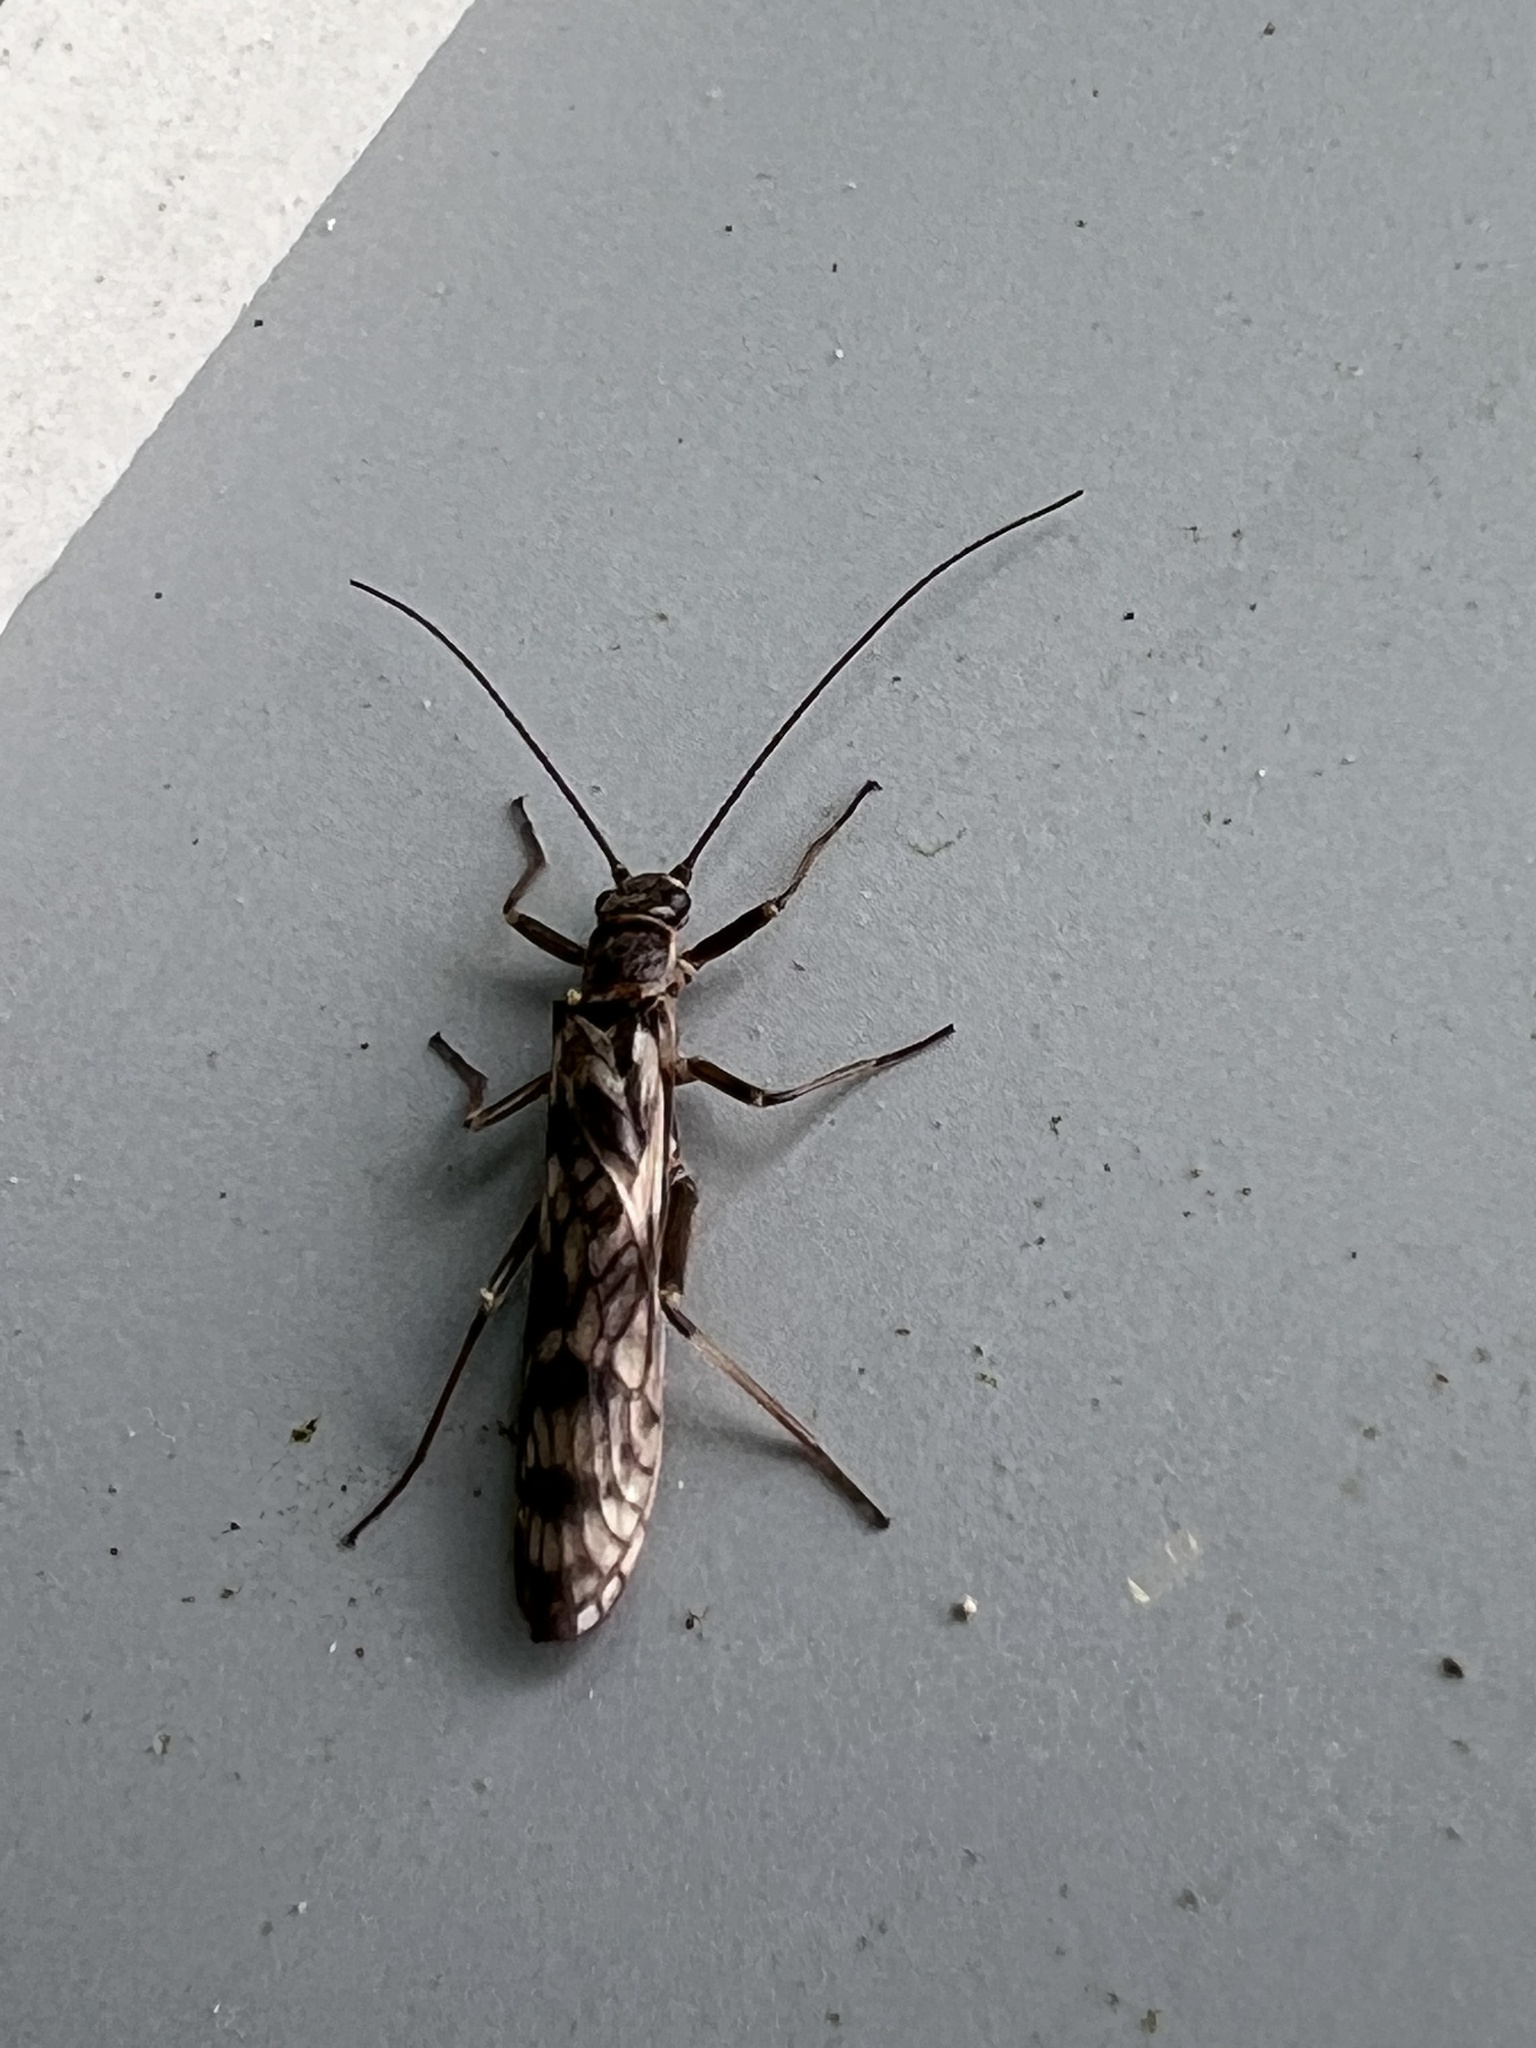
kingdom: Animalia
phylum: Arthropoda
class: Insecta
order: Plecoptera
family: Taeniopterygidae
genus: Doddsia
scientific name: Doddsia occidentalis
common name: Western willowfly
